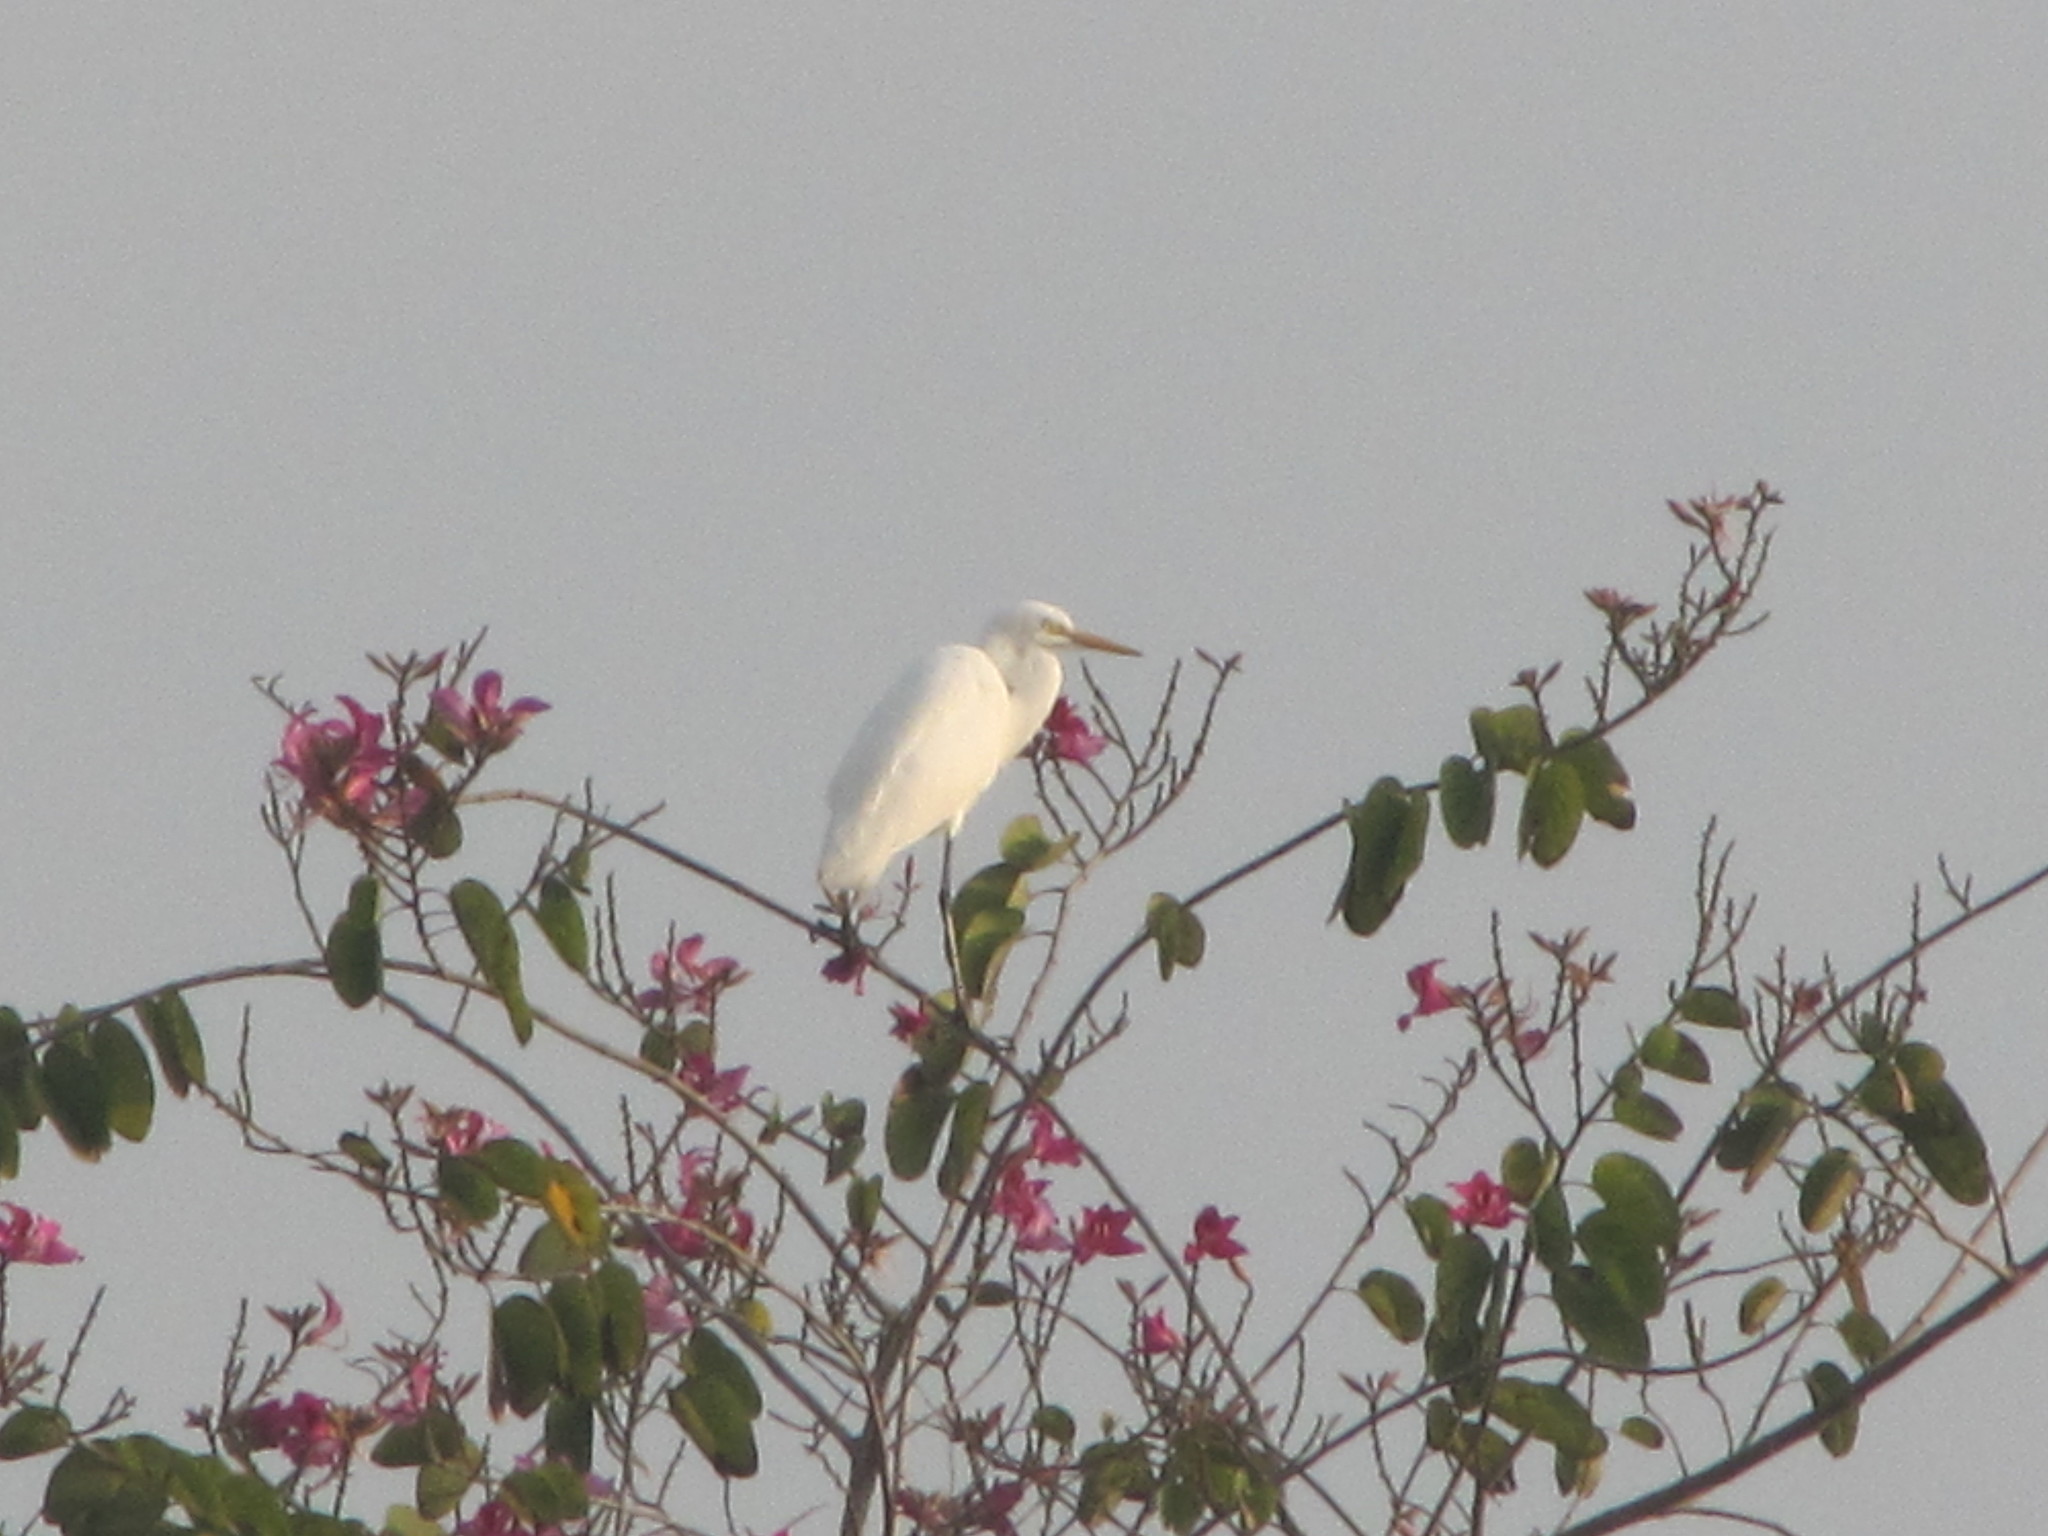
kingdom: Animalia
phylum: Chordata
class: Aves
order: Pelecaniformes
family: Ardeidae
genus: Egretta
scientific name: Egretta intermedia
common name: Intermediate egret
